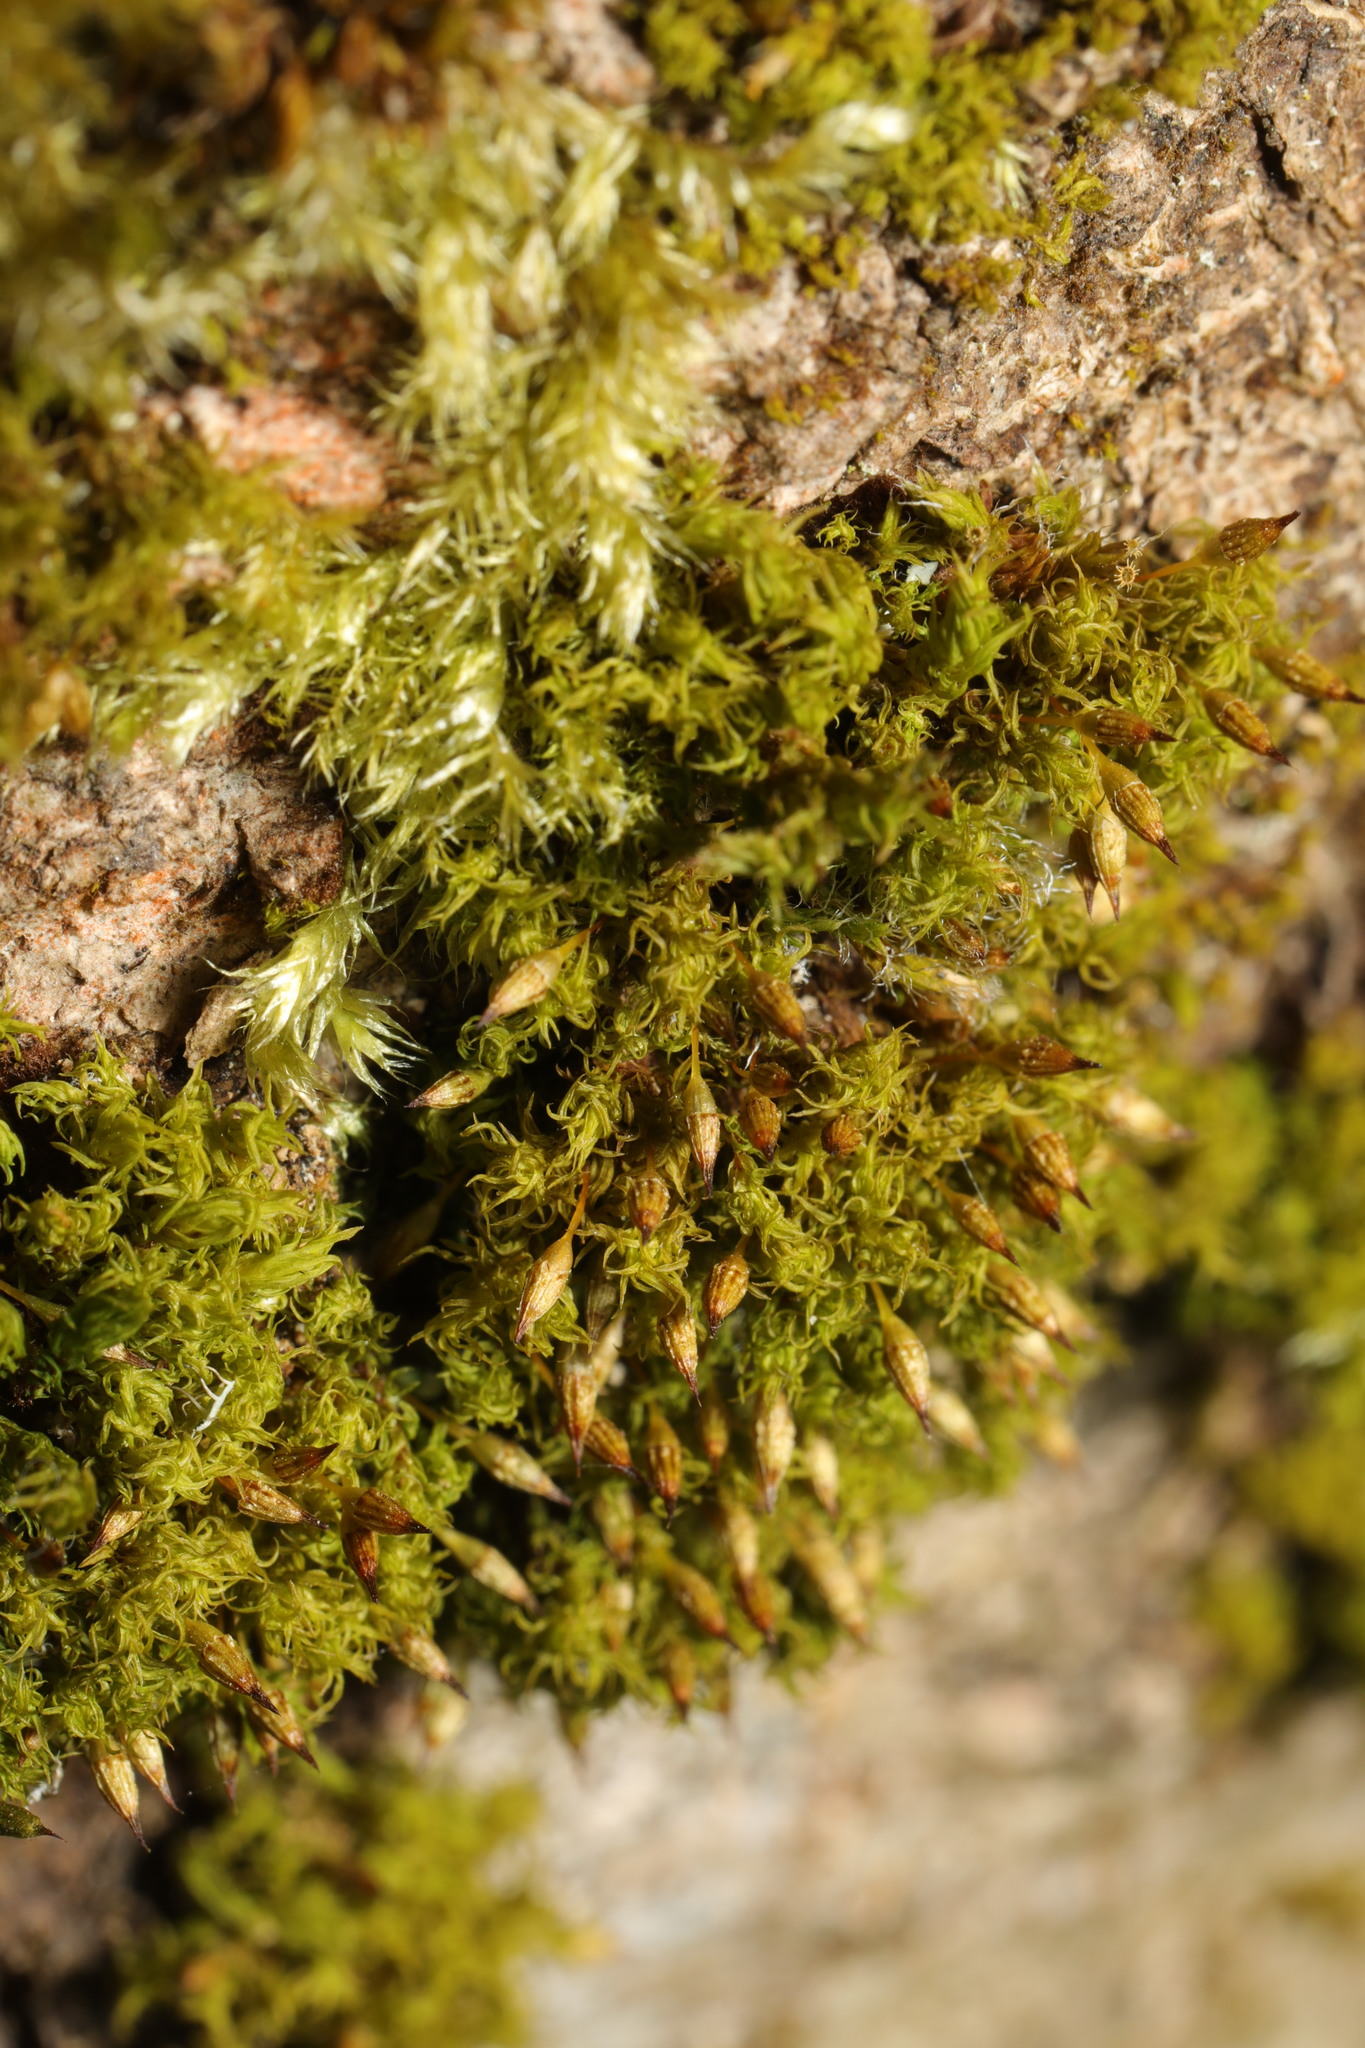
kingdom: Plantae
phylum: Bryophyta
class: Bryopsida
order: Orthotrichales
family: Orthotrichaceae
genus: Orthotrichum
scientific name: Orthotrichum pulchellum
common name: Elegant bristle-moss
